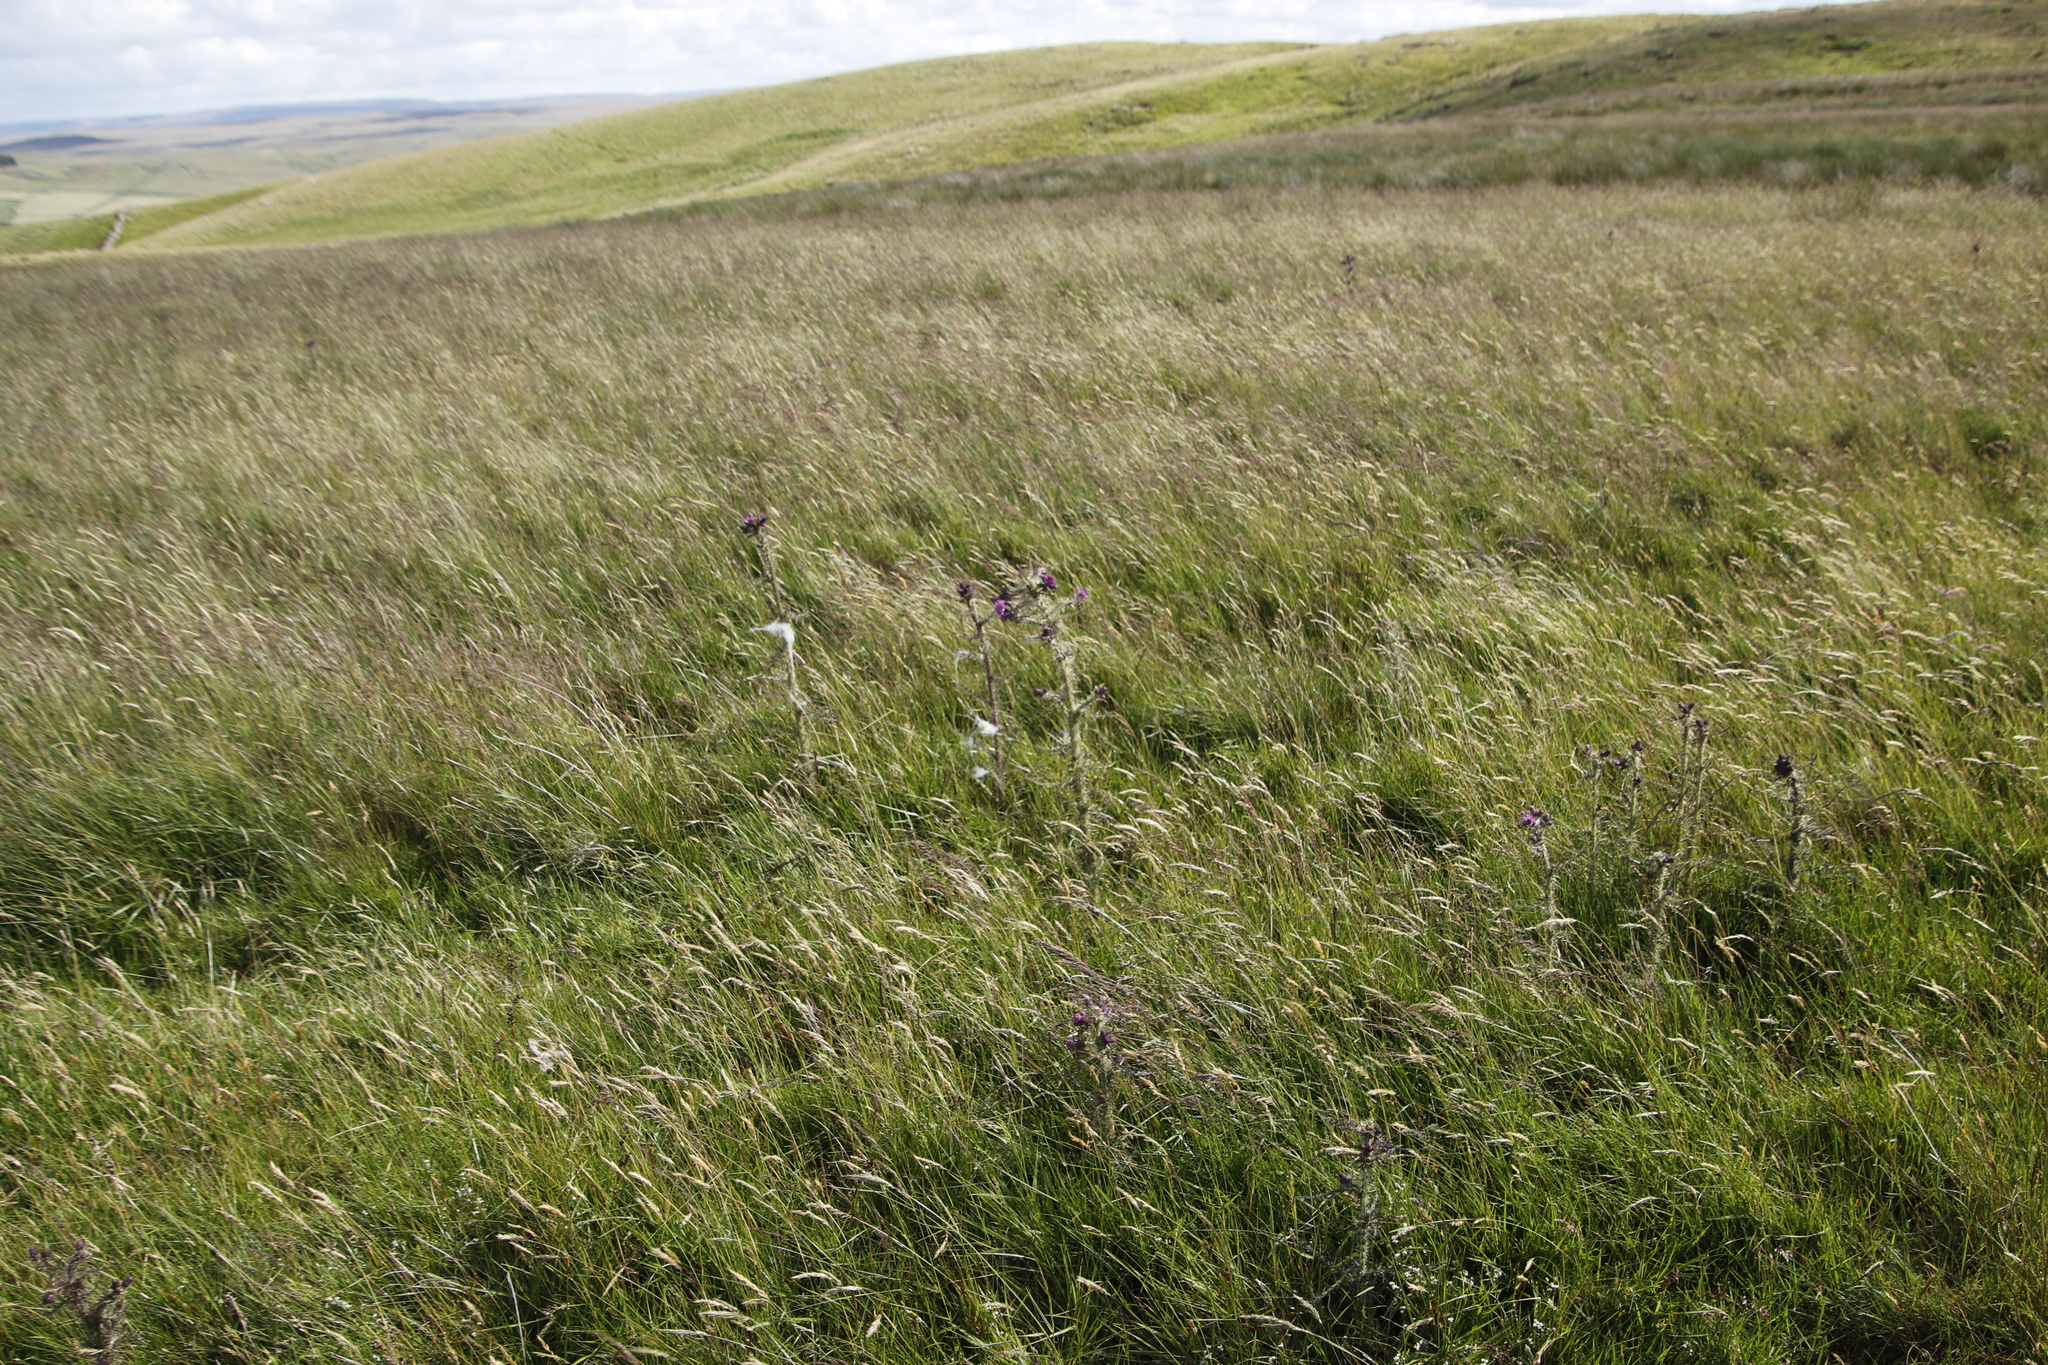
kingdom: Plantae
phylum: Tracheophyta
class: Magnoliopsida
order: Asterales
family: Asteraceae
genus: Cirsium
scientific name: Cirsium palustre
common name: Marsh thistle
